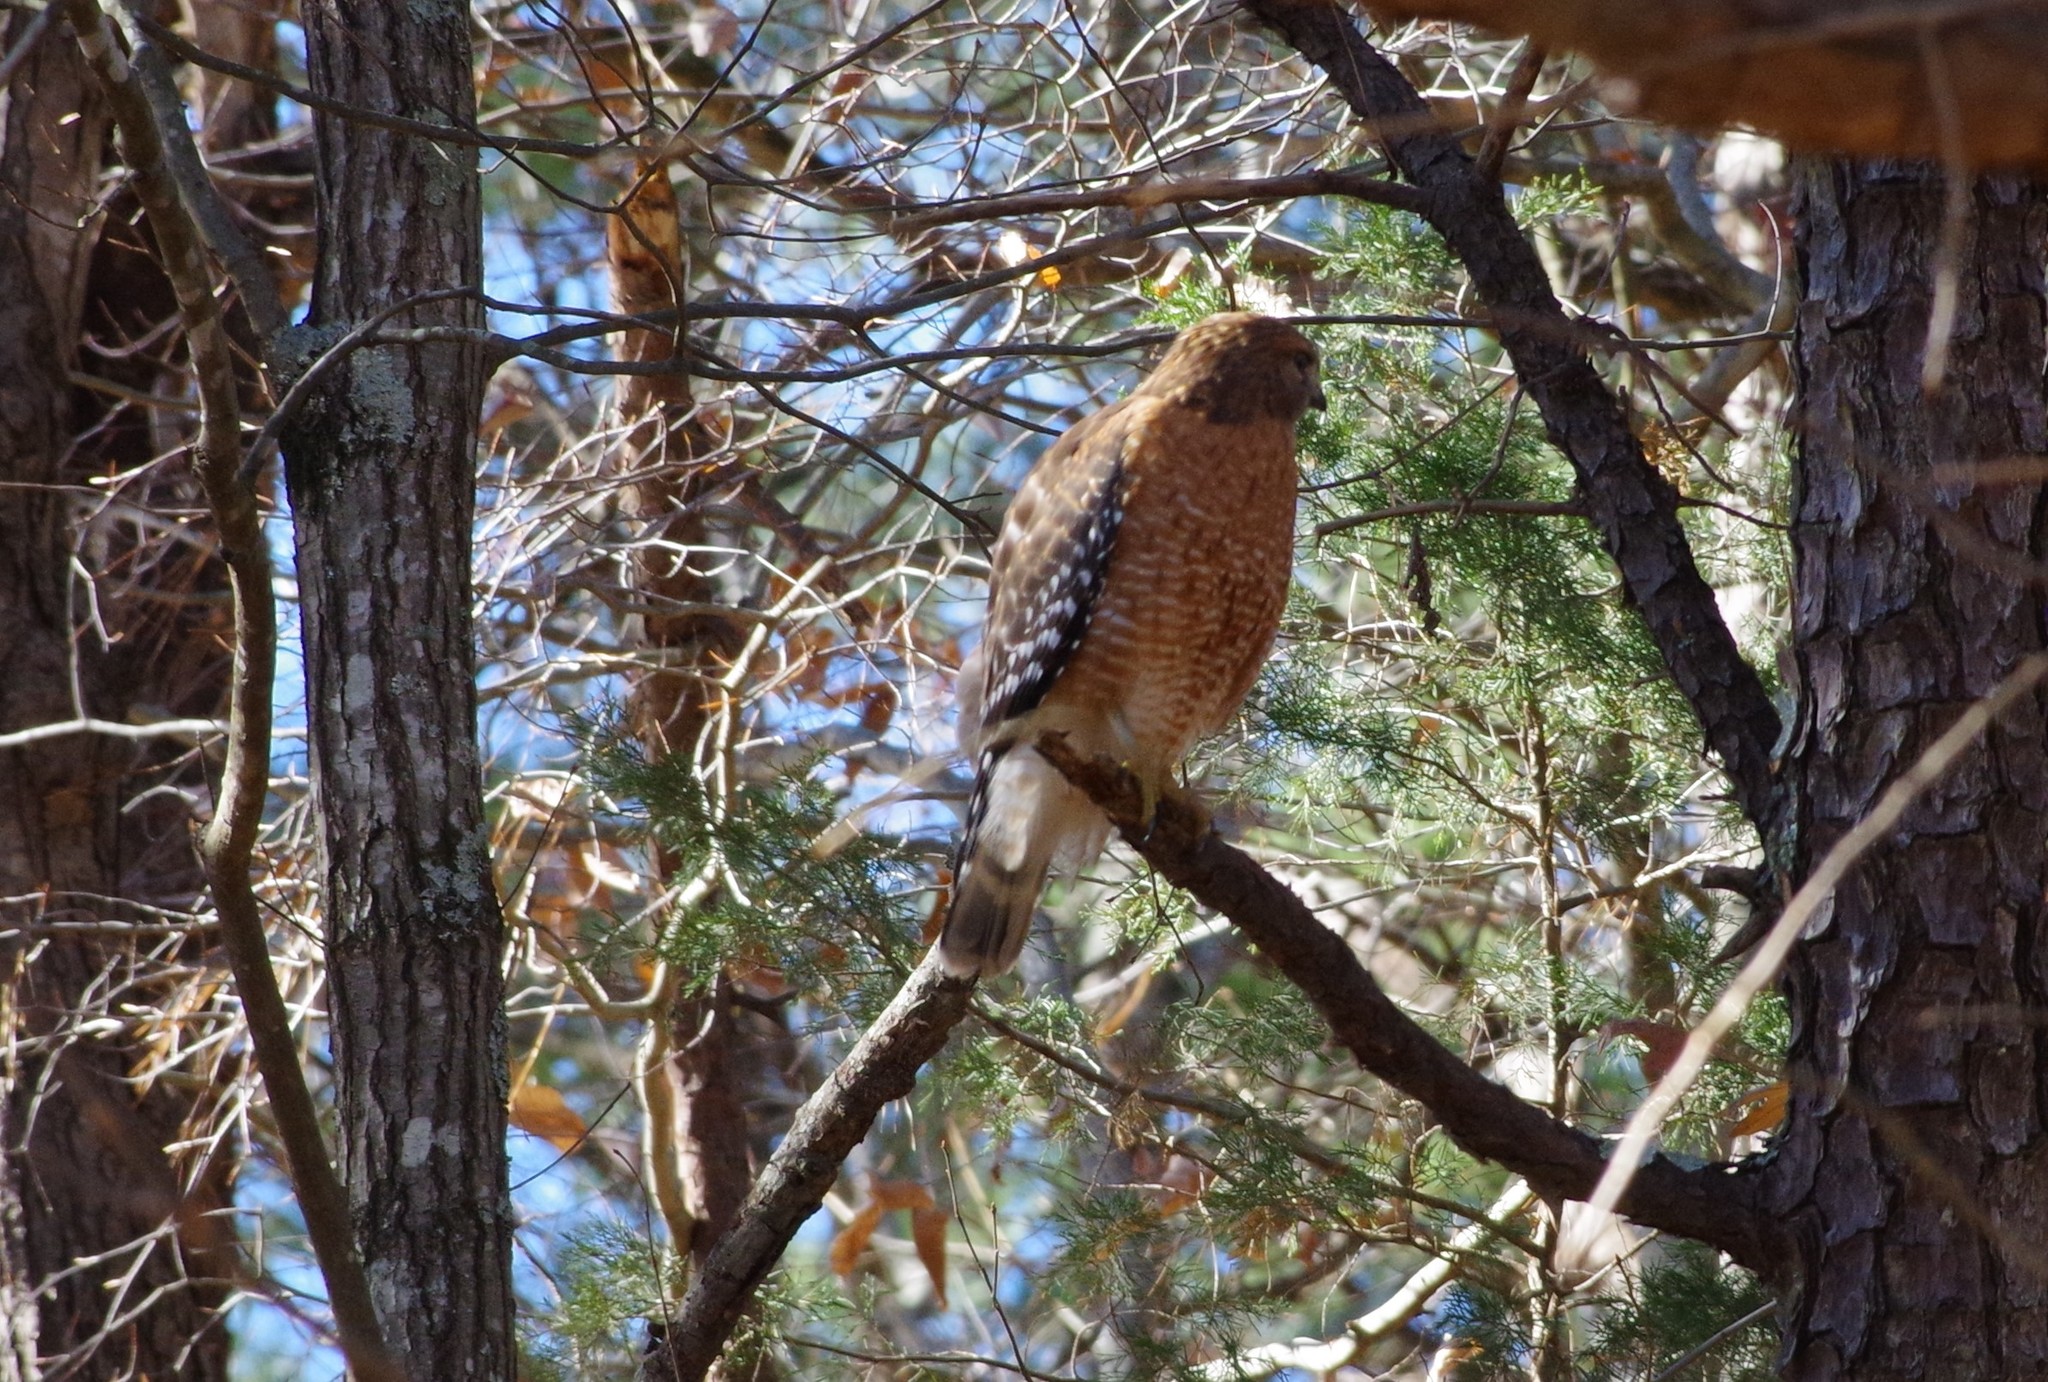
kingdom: Animalia
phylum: Chordata
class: Aves
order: Accipitriformes
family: Accipitridae
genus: Buteo
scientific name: Buteo lineatus
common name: Red-shouldered hawk
